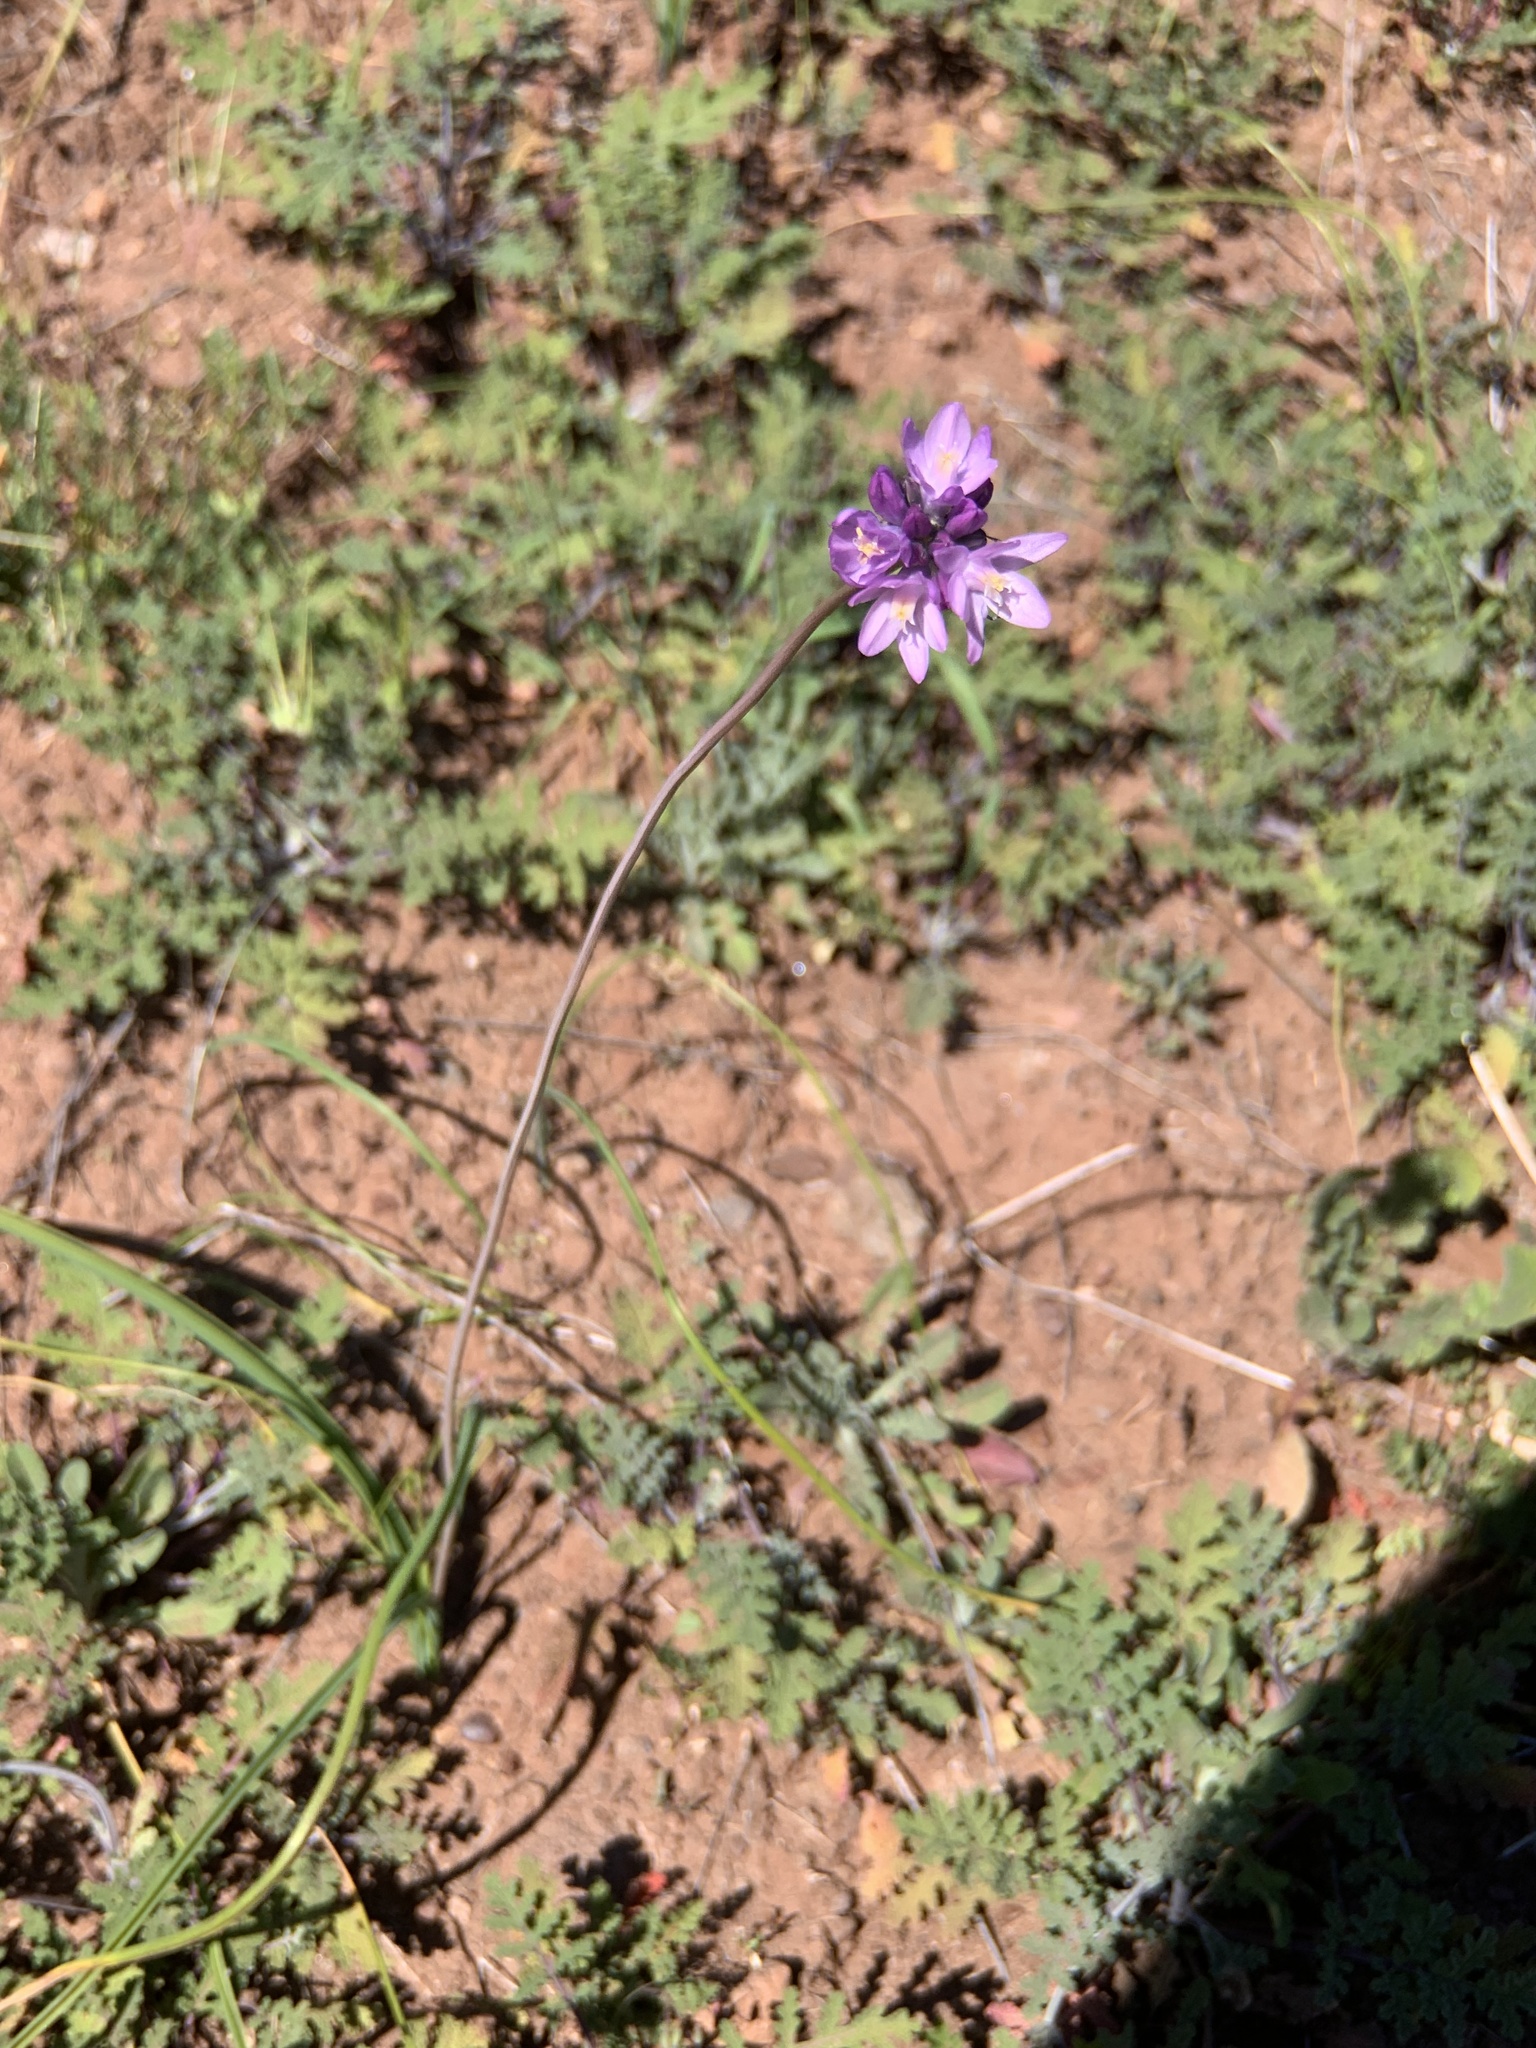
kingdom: Plantae
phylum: Tracheophyta
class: Liliopsida
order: Asparagales
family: Asparagaceae
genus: Dipterostemon
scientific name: Dipterostemon capitatus
